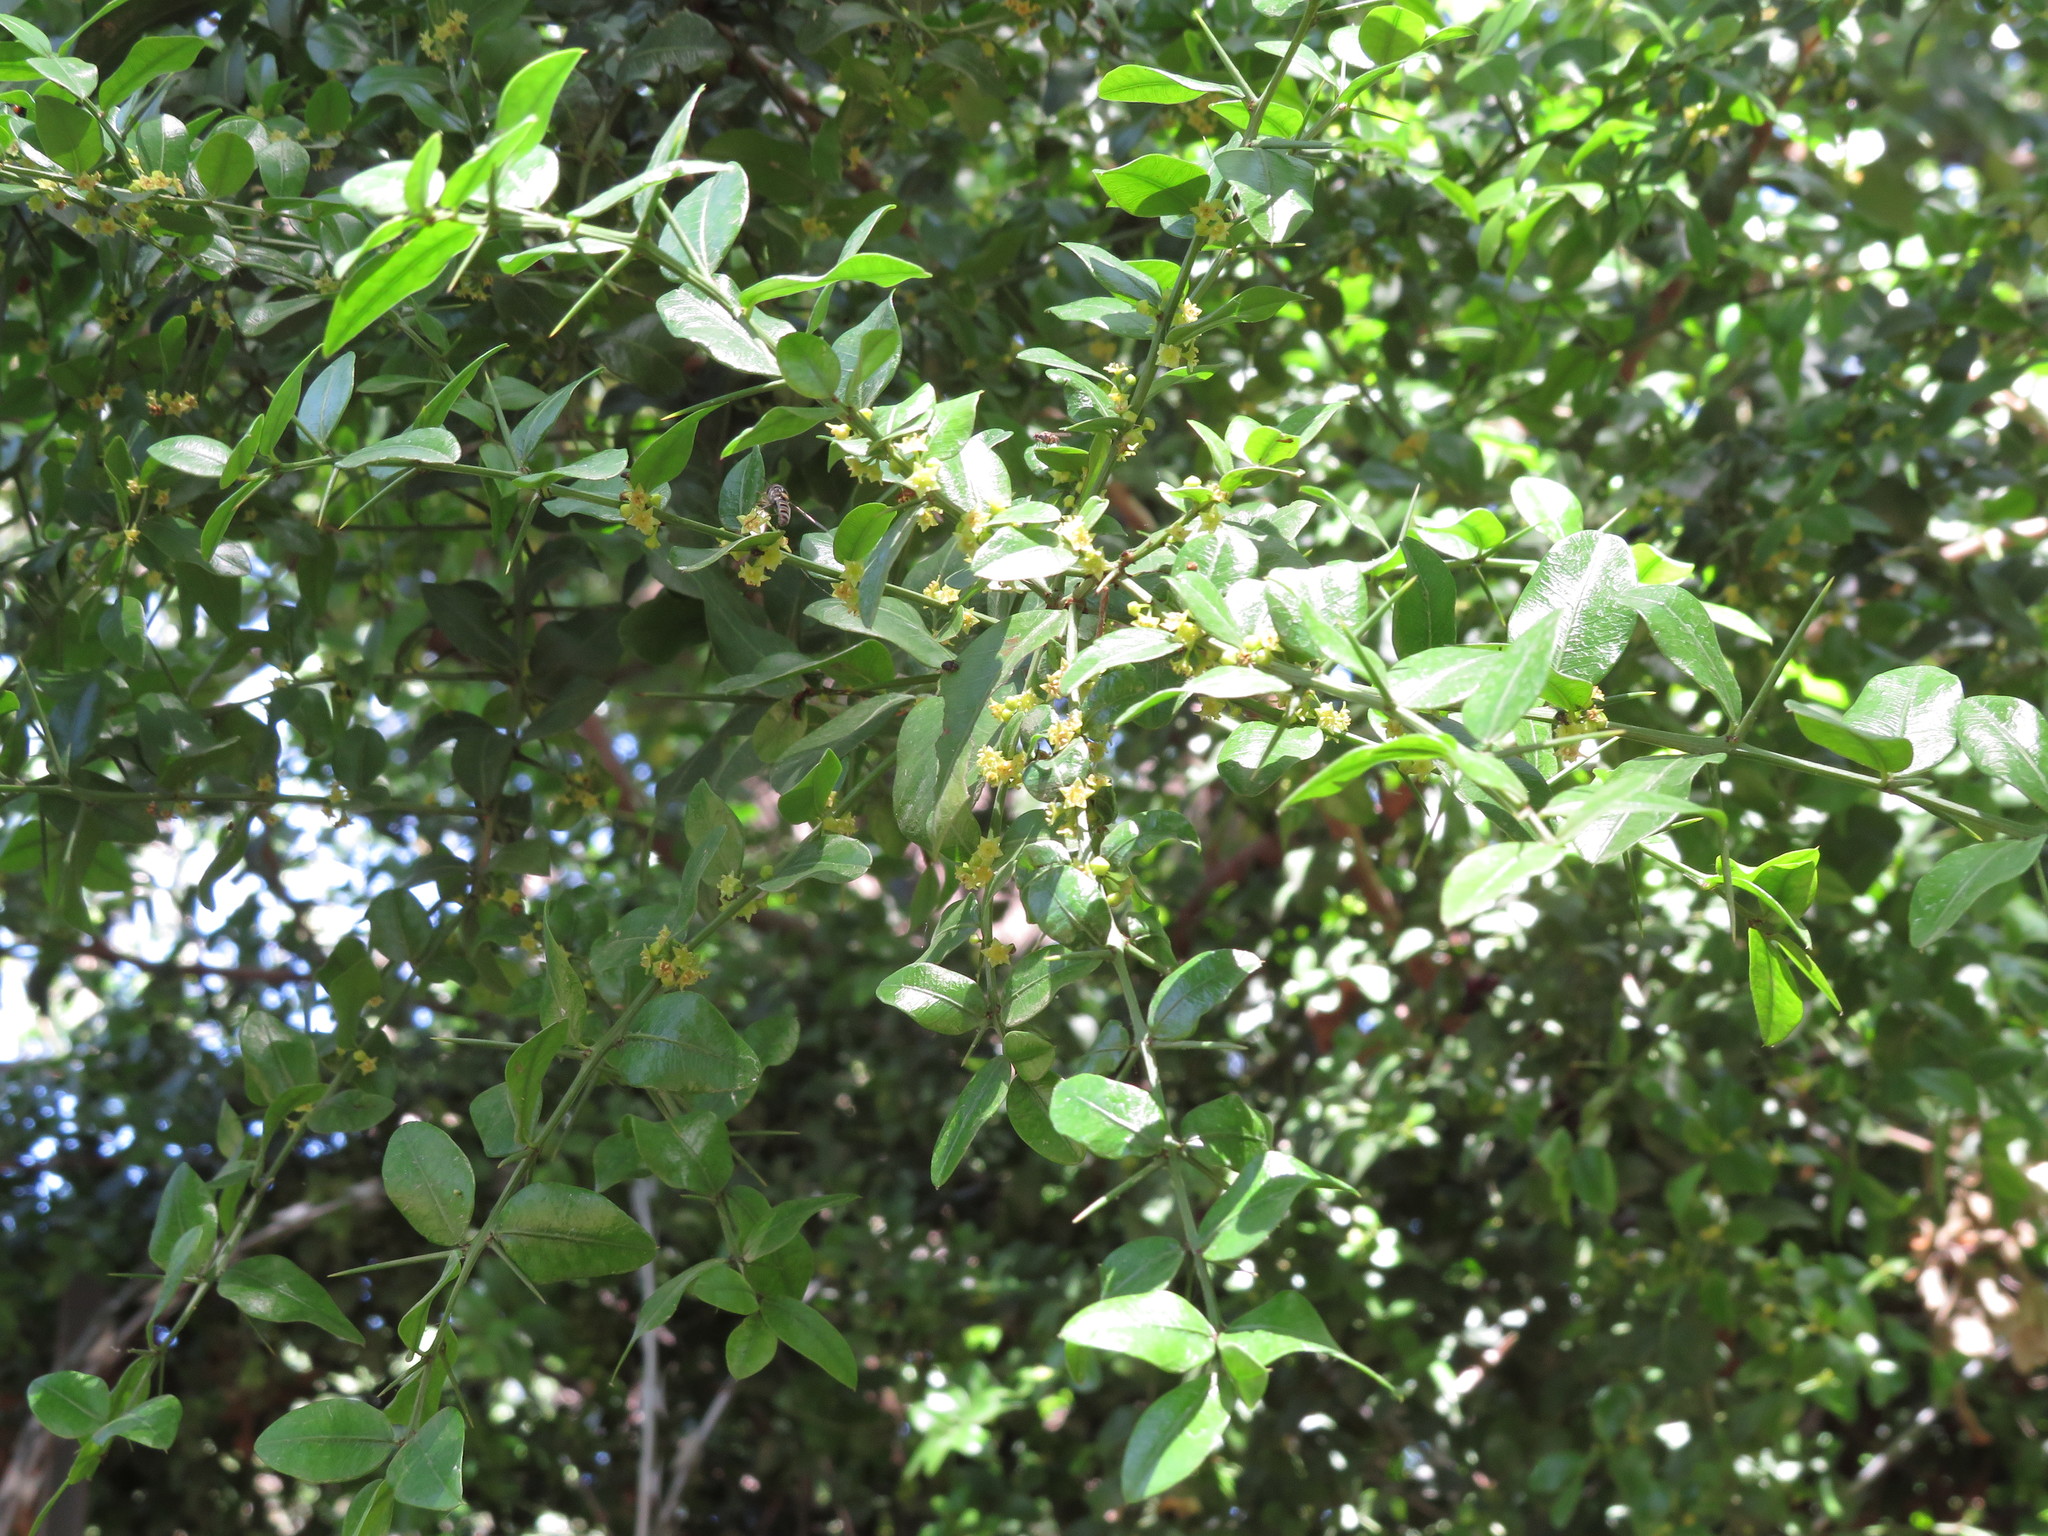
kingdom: Plantae
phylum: Tracheophyta
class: Magnoliopsida
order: Rosales
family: Rhamnaceae
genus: Scutia
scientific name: Scutia buxifolia
